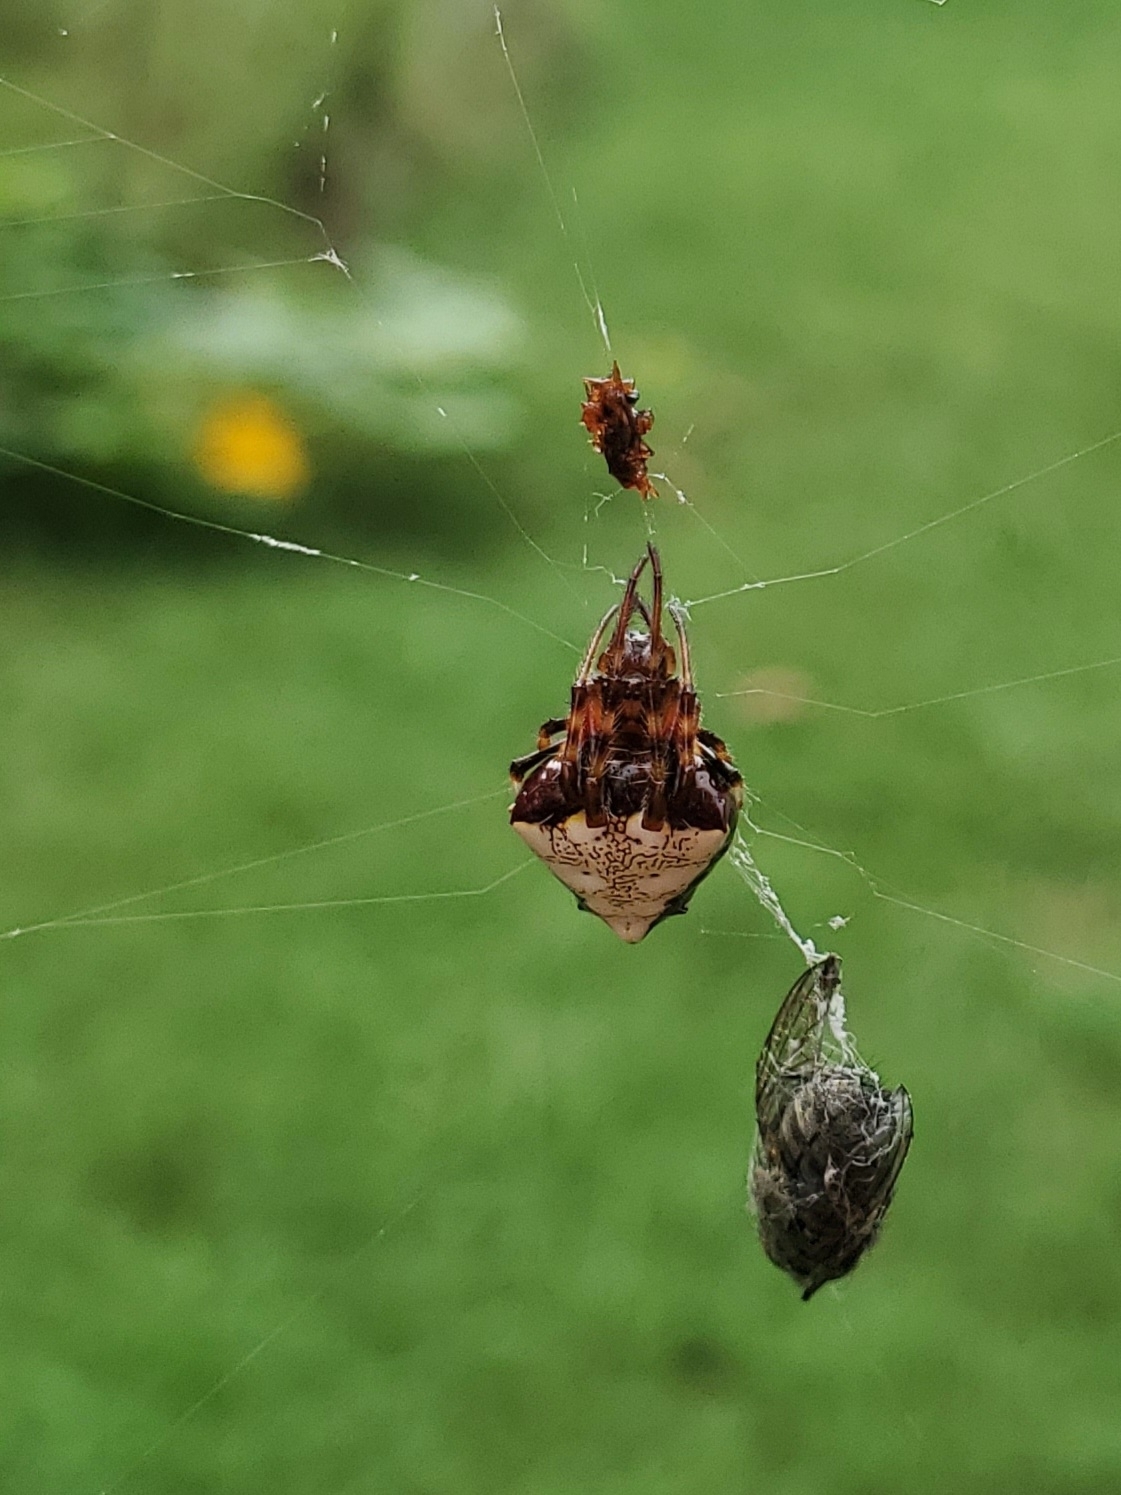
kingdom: Animalia
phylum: Arthropoda
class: Arachnida
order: Araneae
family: Araneidae
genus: Verrucosa
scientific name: Verrucosa arenata
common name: Orb weavers
